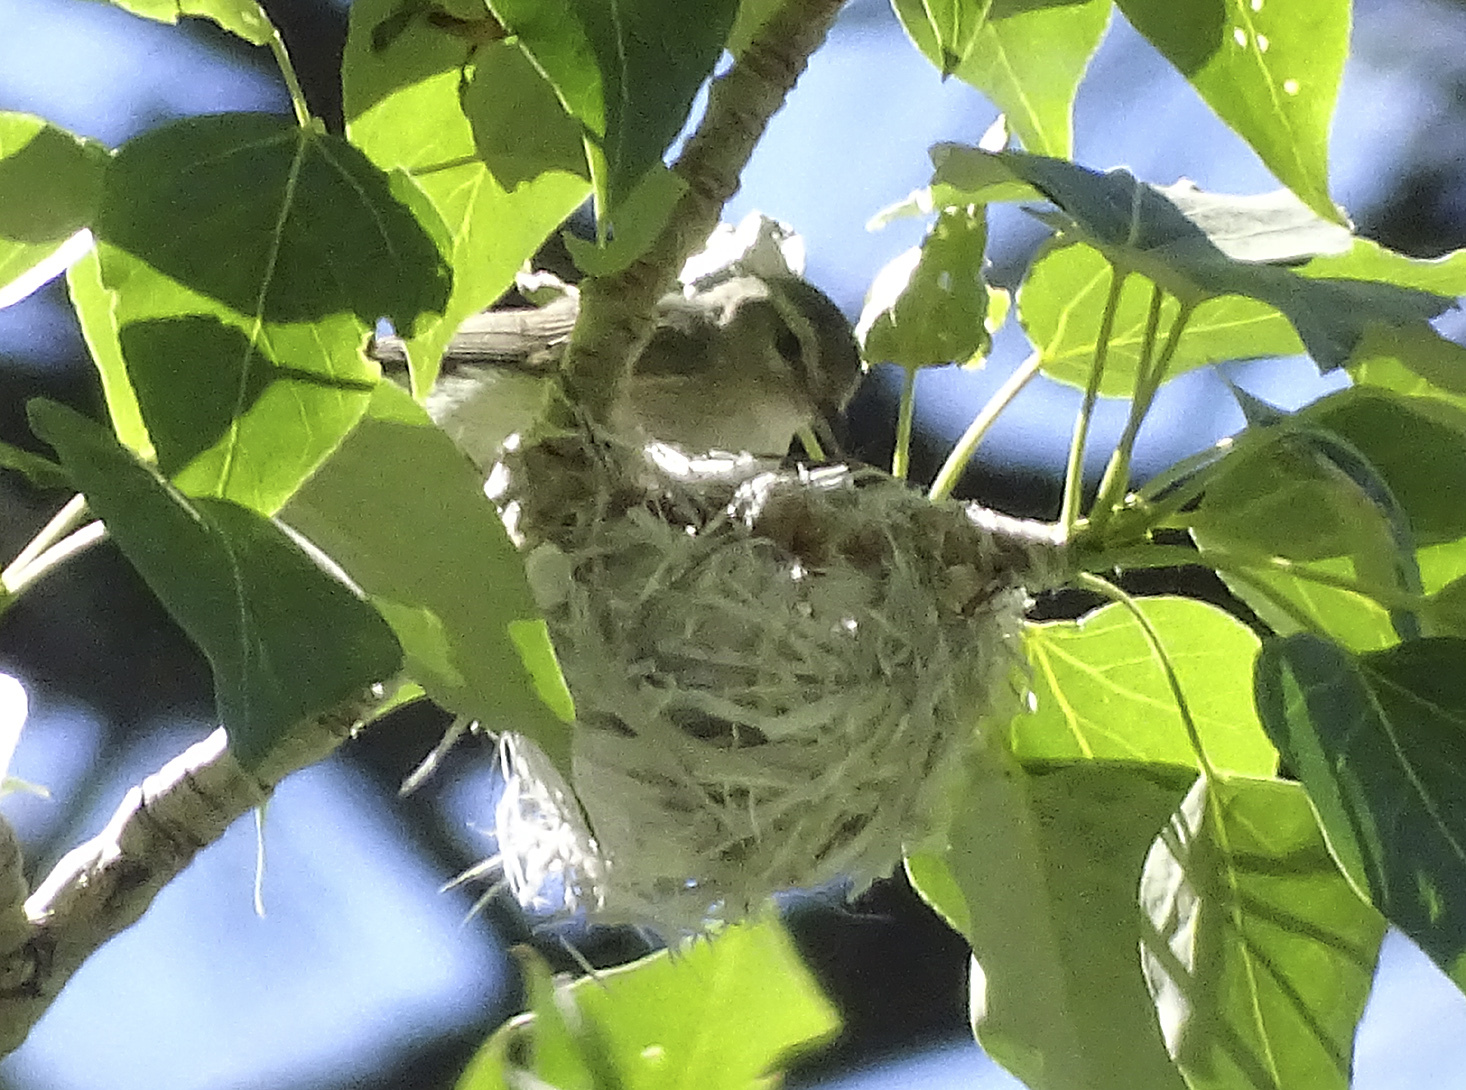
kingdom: Animalia
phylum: Chordata
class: Aves
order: Passeriformes
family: Vireonidae
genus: Vireo
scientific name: Vireo gilvus
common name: Warbling vireo
